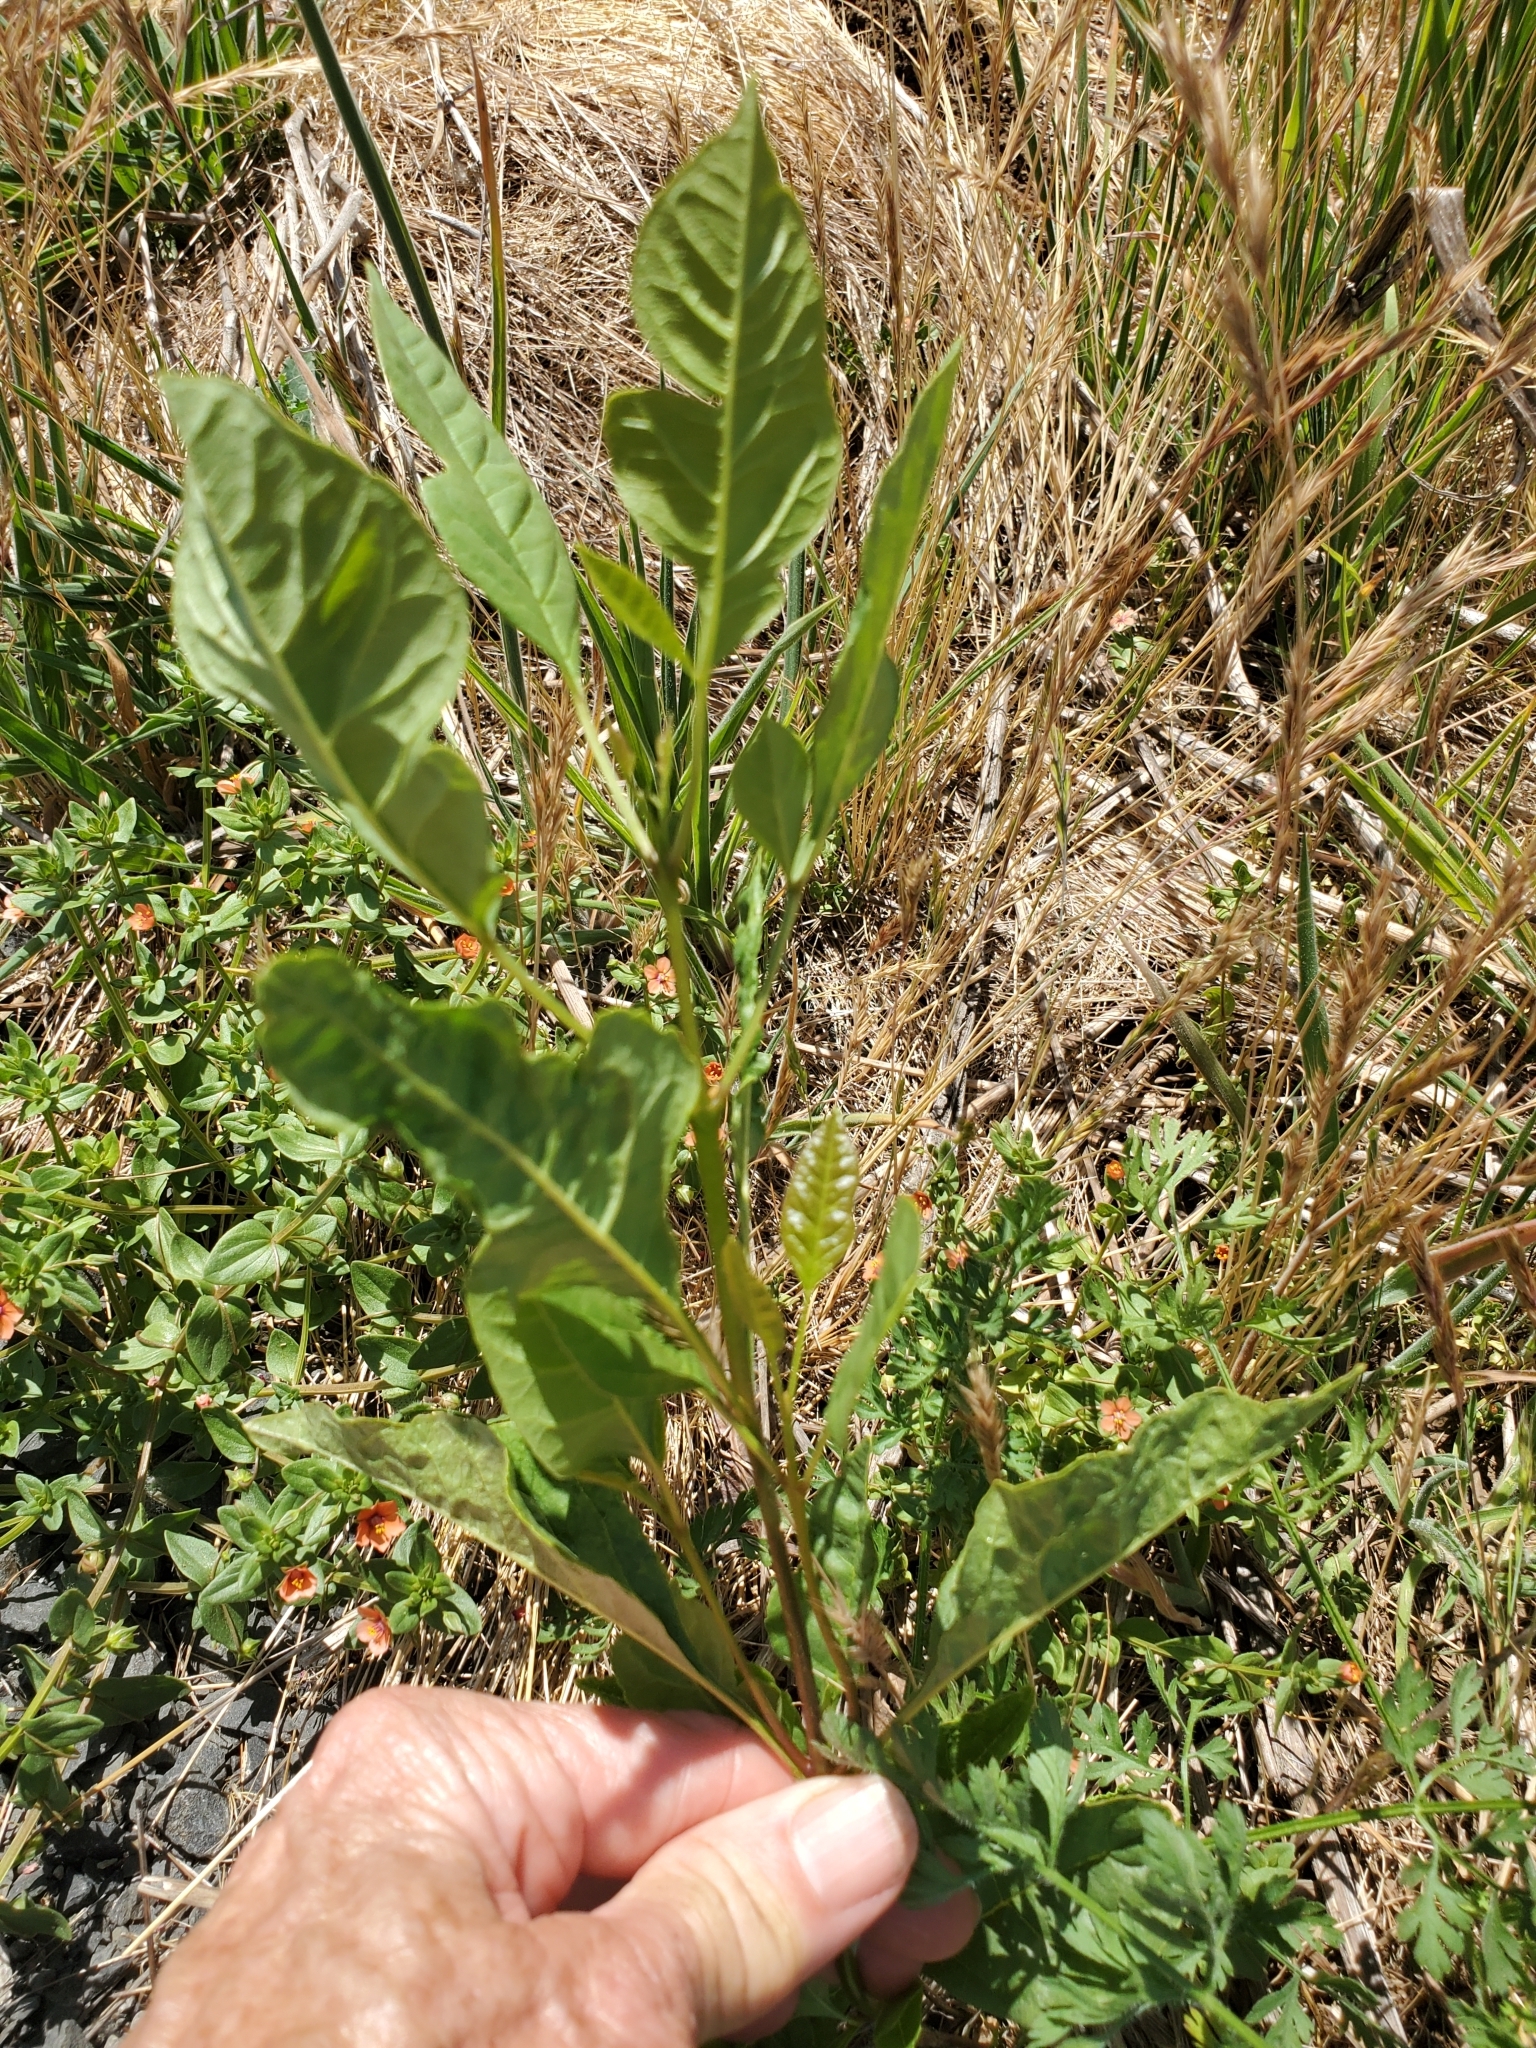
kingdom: Plantae
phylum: Tracheophyta
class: Magnoliopsida
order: Lamiales
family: Oleaceae
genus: Fraxinus
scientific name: Fraxinus latifolia
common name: Oregon ash
